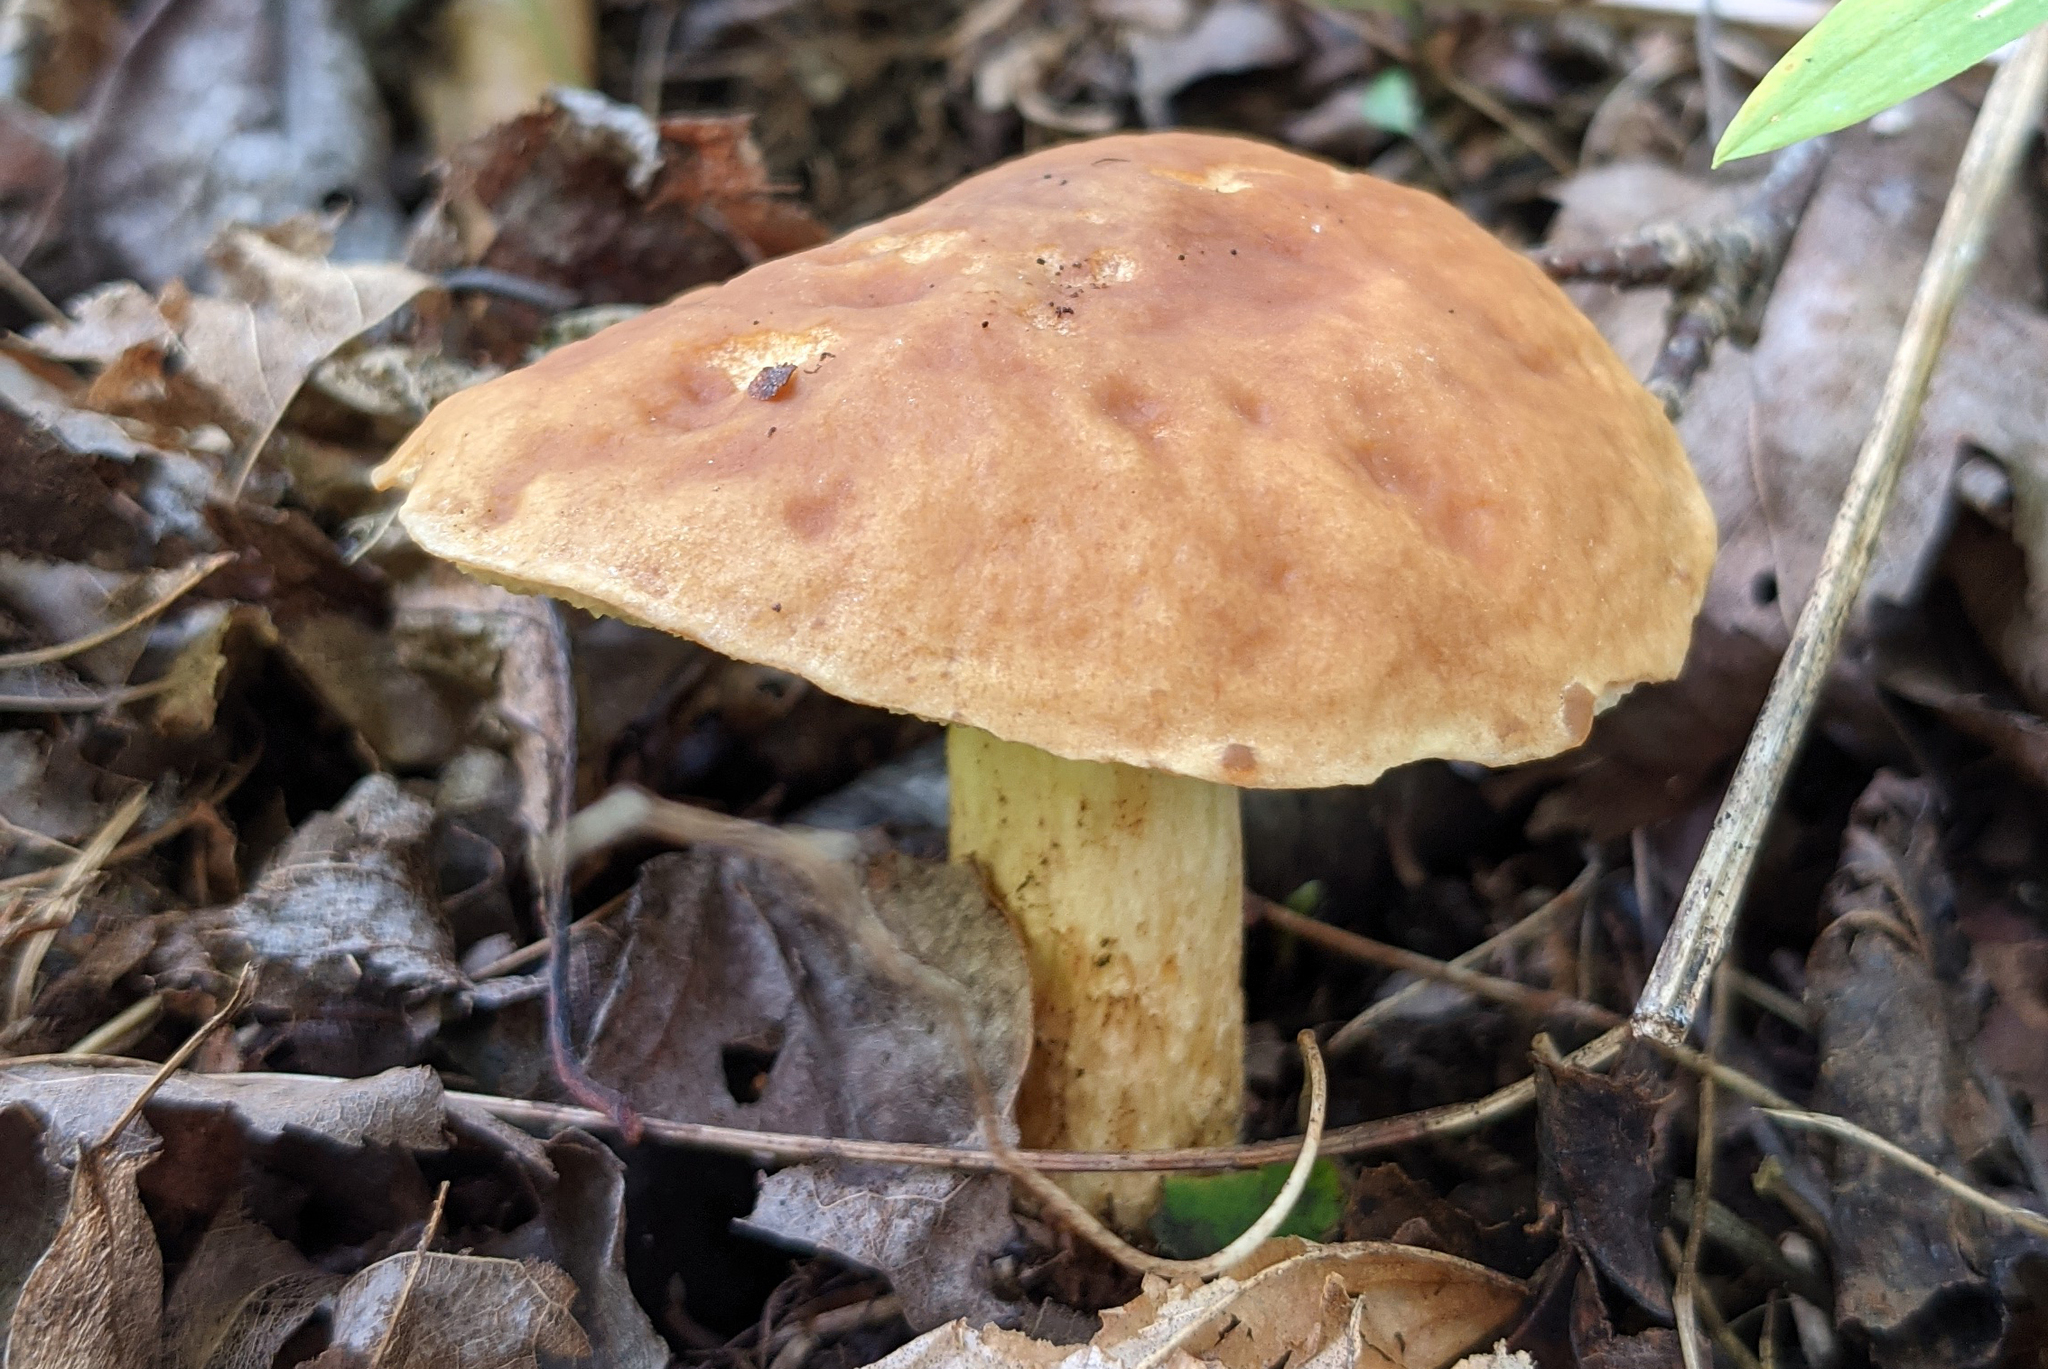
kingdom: Fungi
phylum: Basidiomycota
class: Agaricomycetes
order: Boletales
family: Boletaceae
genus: Hemileccinum
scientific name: Hemileccinum subglabripes
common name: Smoothish-stemmed bolete
